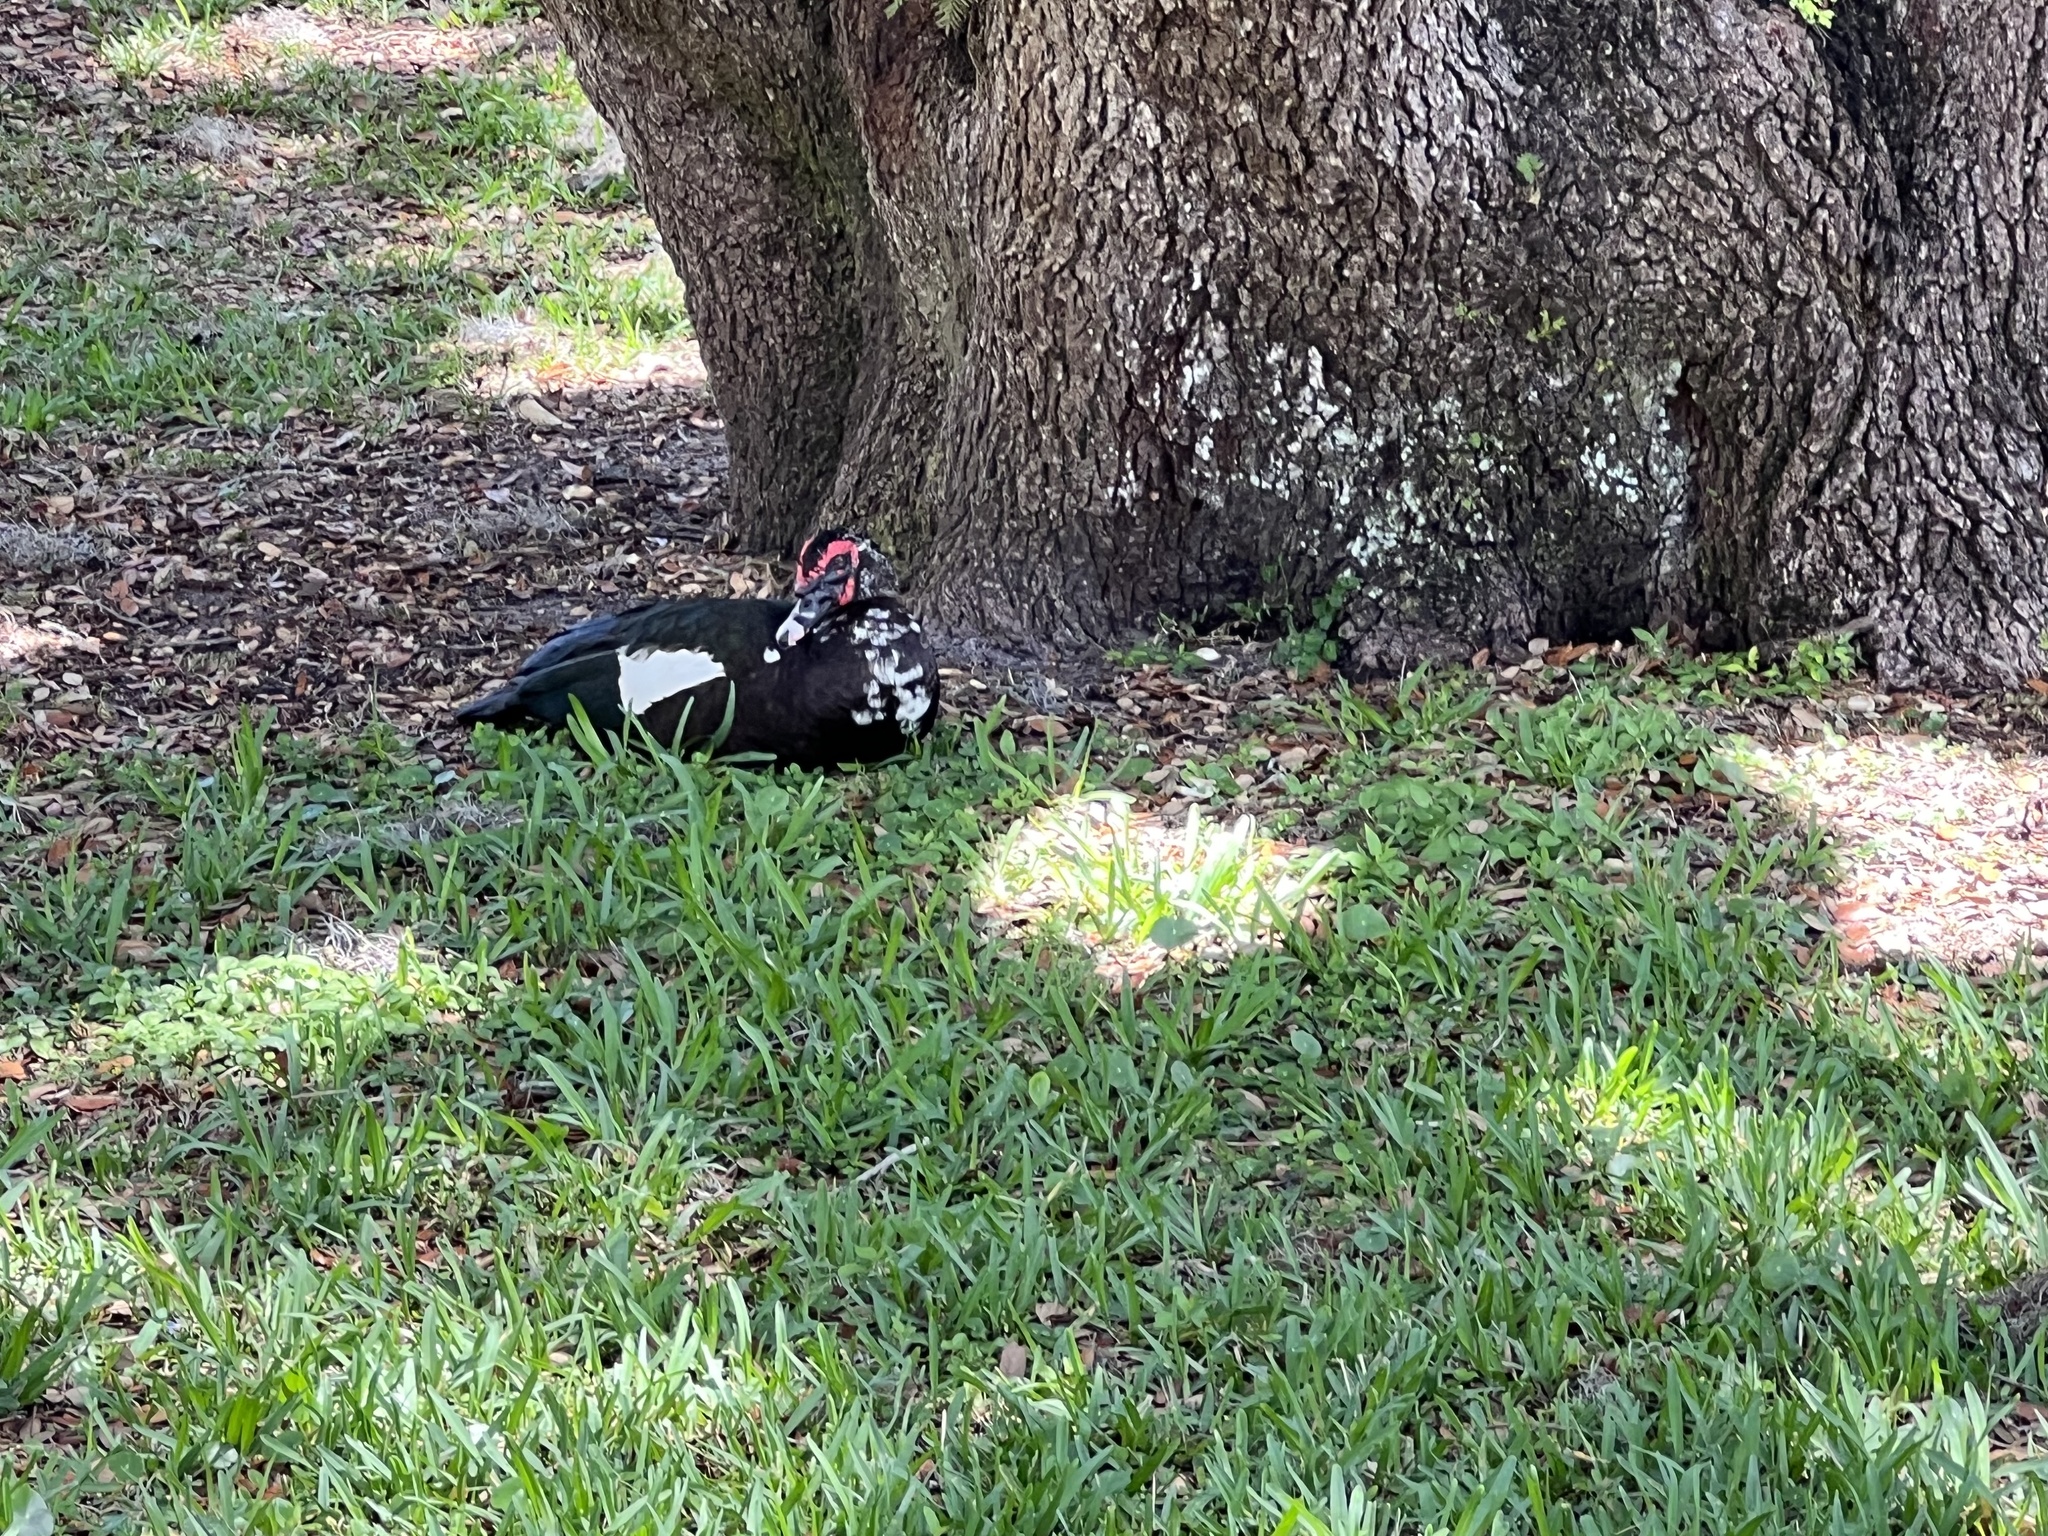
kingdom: Animalia
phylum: Chordata
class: Aves
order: Anseriformes
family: Anatidae
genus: Cairina
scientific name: Cairina moschata
